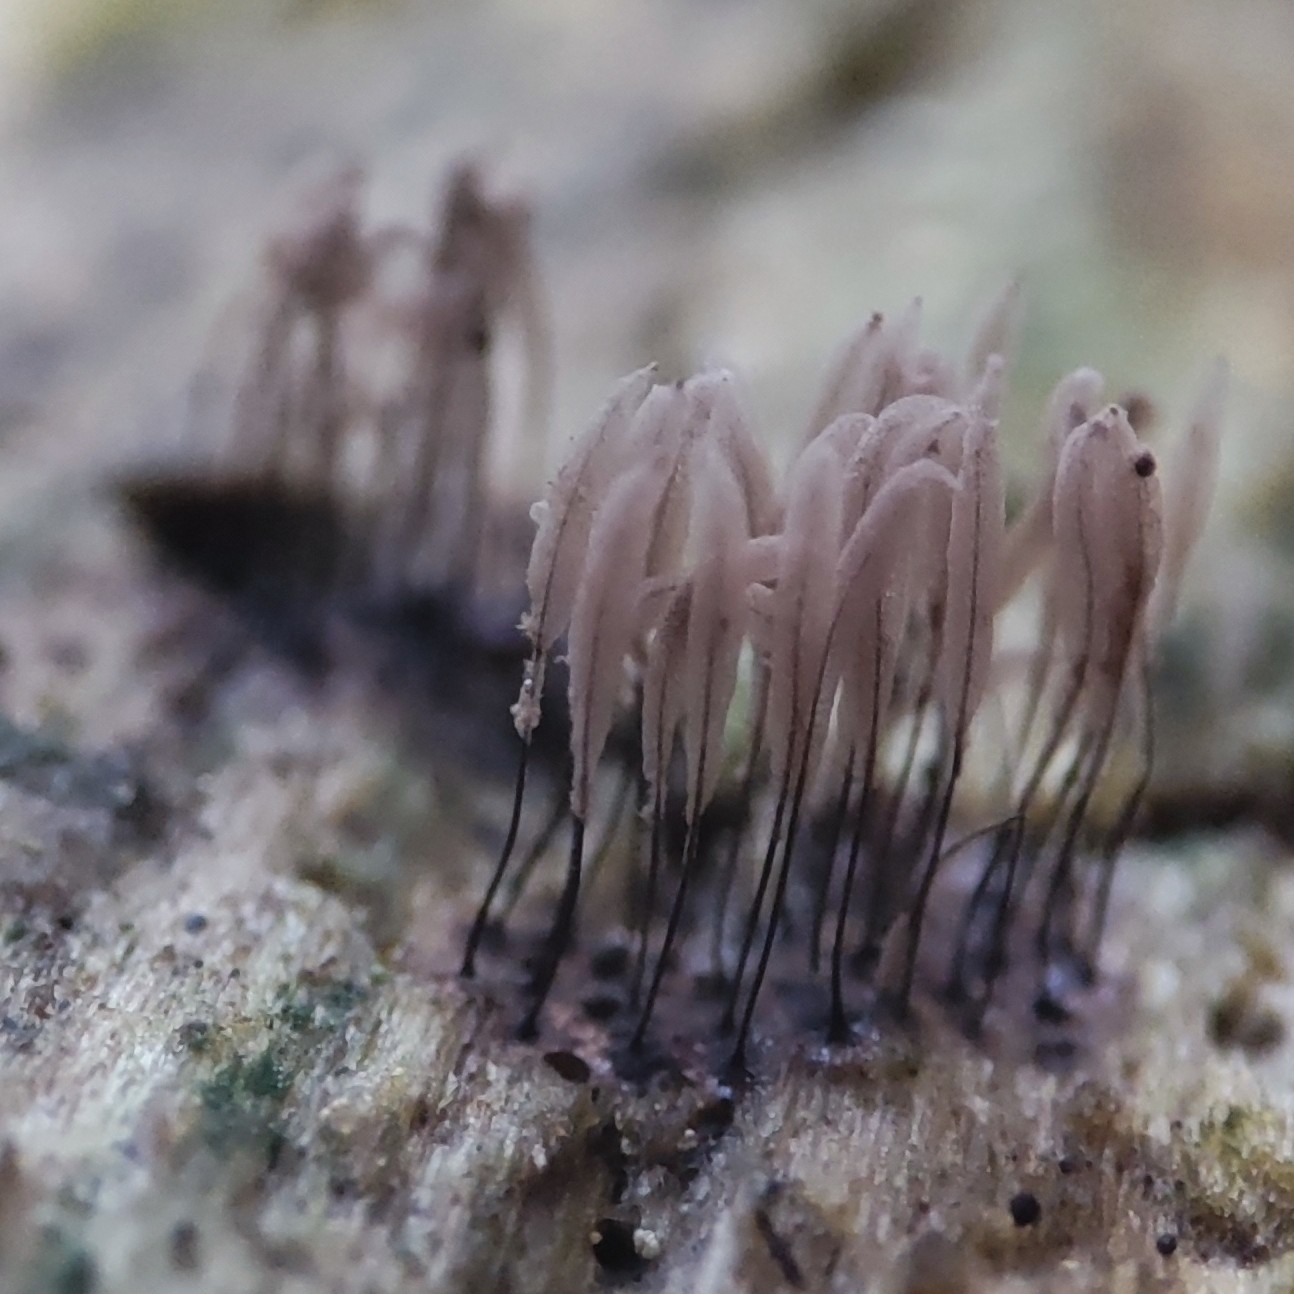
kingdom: Protozoa
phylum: Mycetozoa
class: Myxomycetes
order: Stemonitidales
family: Stemonitidaceae
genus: Stemonitopsis
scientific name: Stemonitopsis typhina
